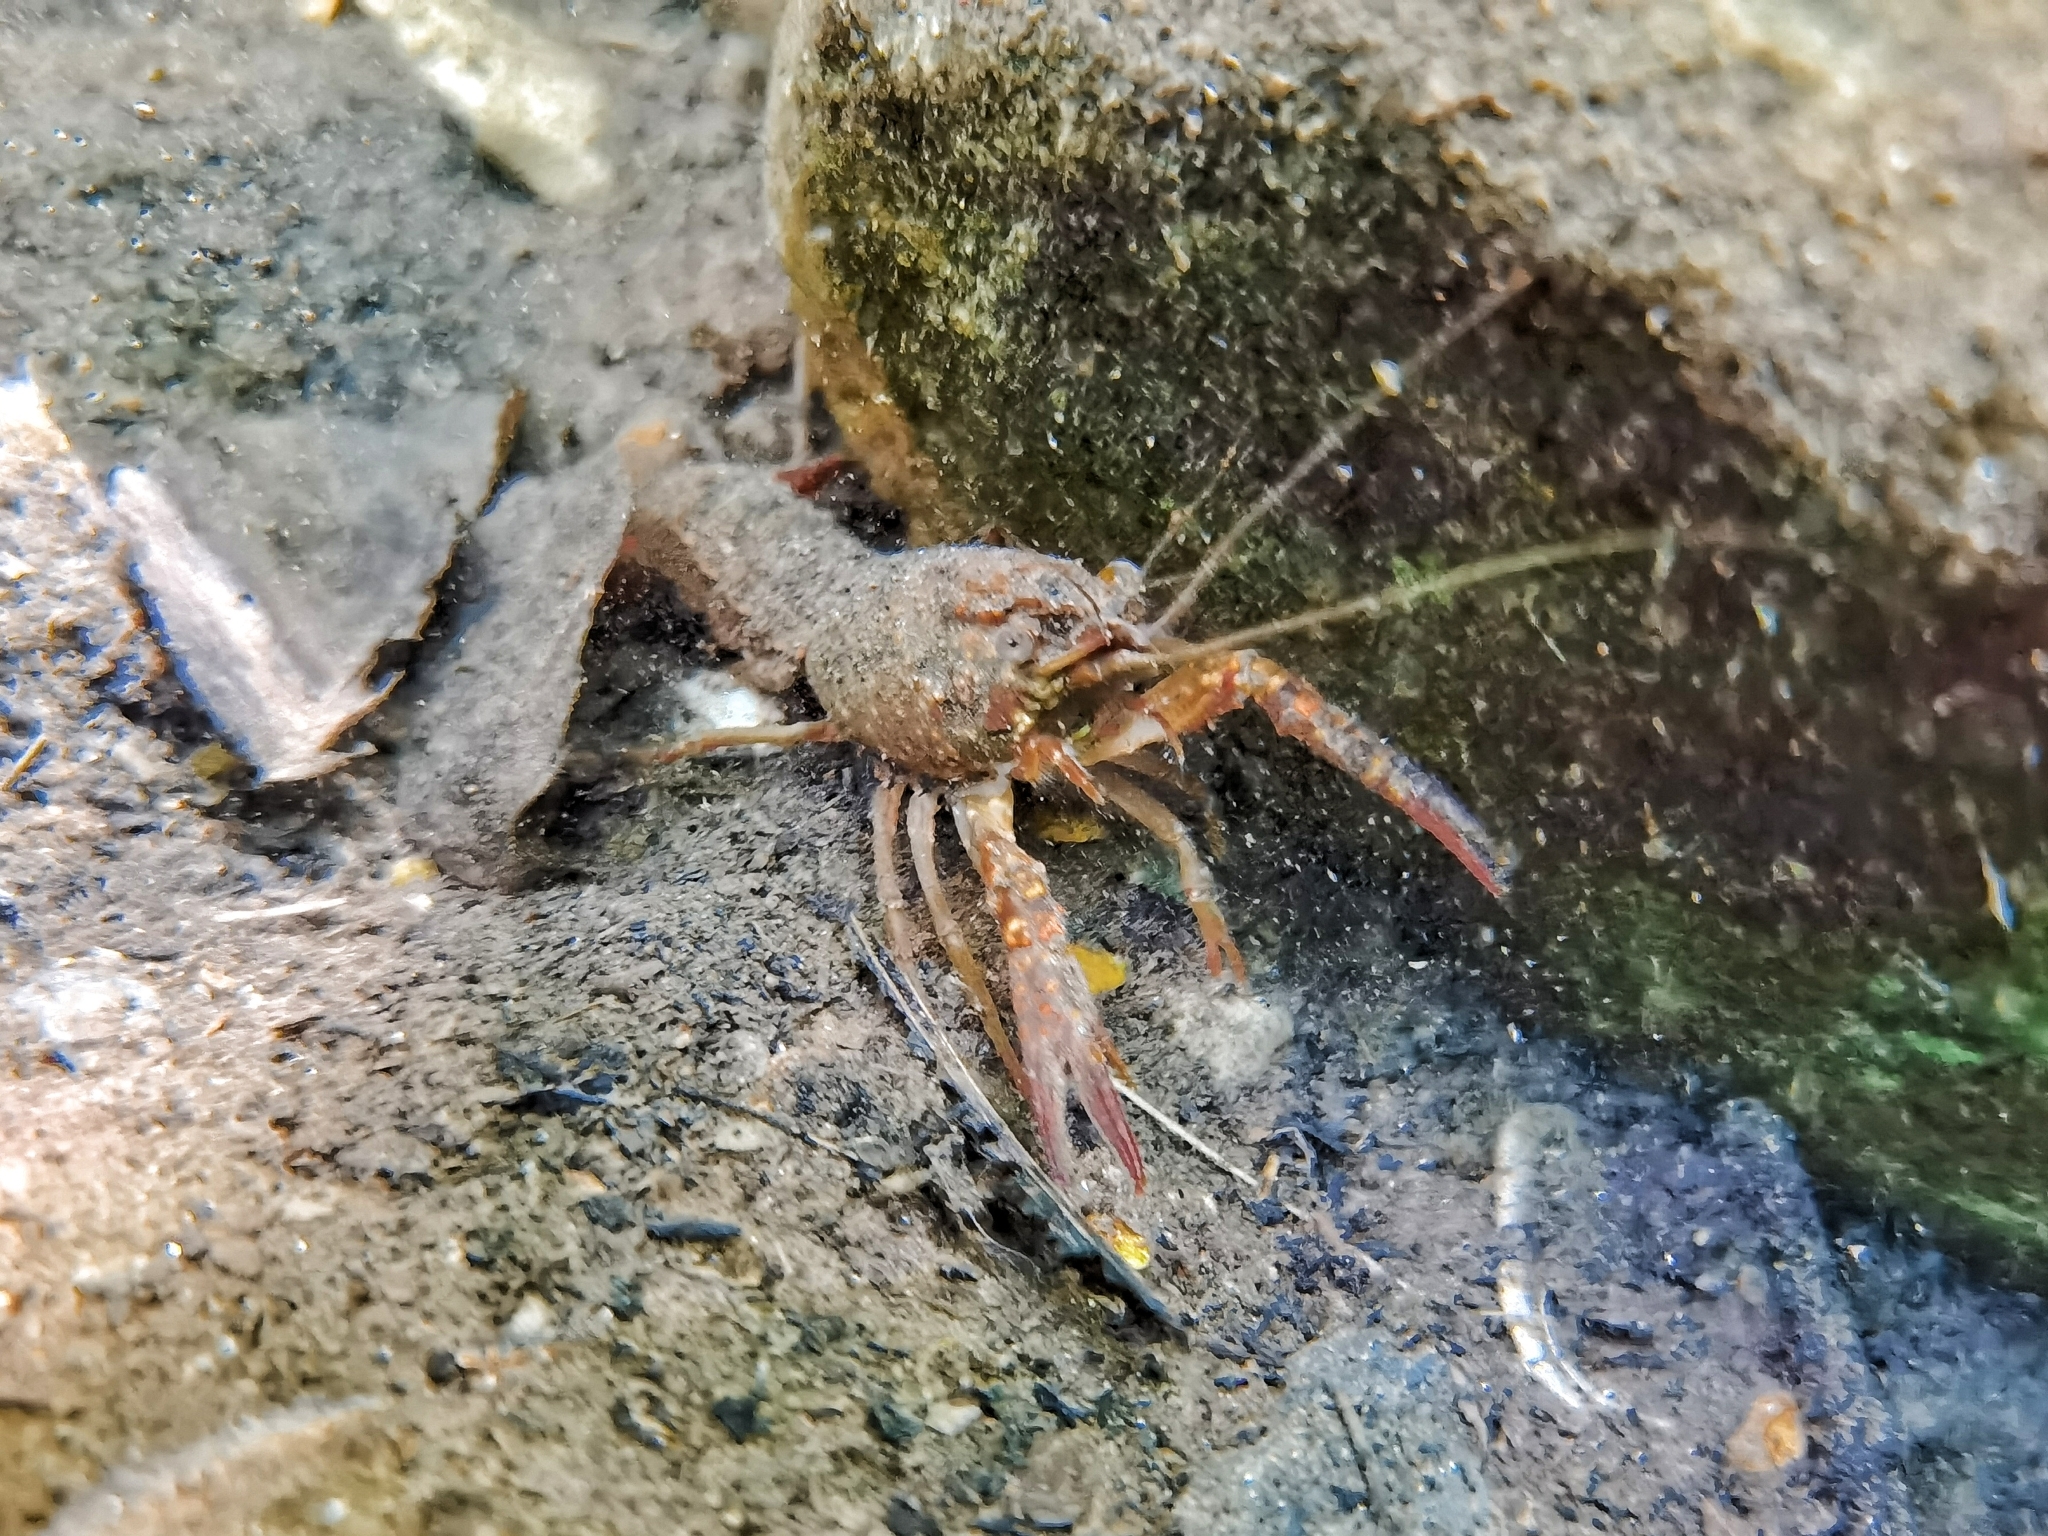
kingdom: Animalia
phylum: Arthropoda
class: Malacostraca
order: Decapoda
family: Cambaridae
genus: Procambarus
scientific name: Procambarus clarkii
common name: Red swamp crayfish
